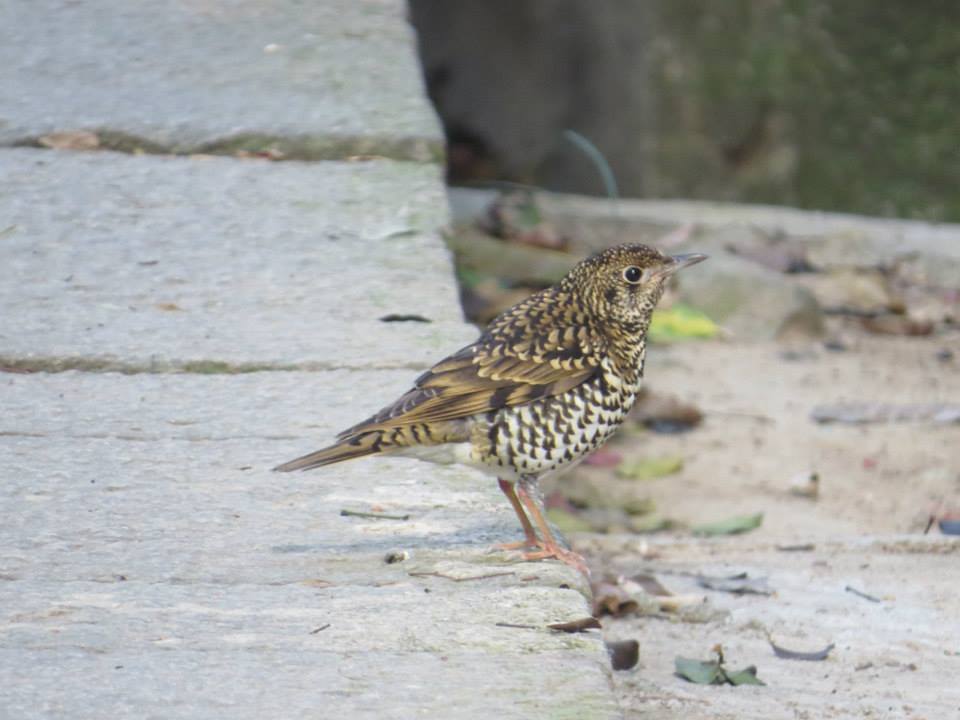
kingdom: Animalia
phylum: Chordata
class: Aves
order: Passeriformes
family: Turdidae
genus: Zoothera
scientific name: Zoothera aurea
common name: White's thrush
